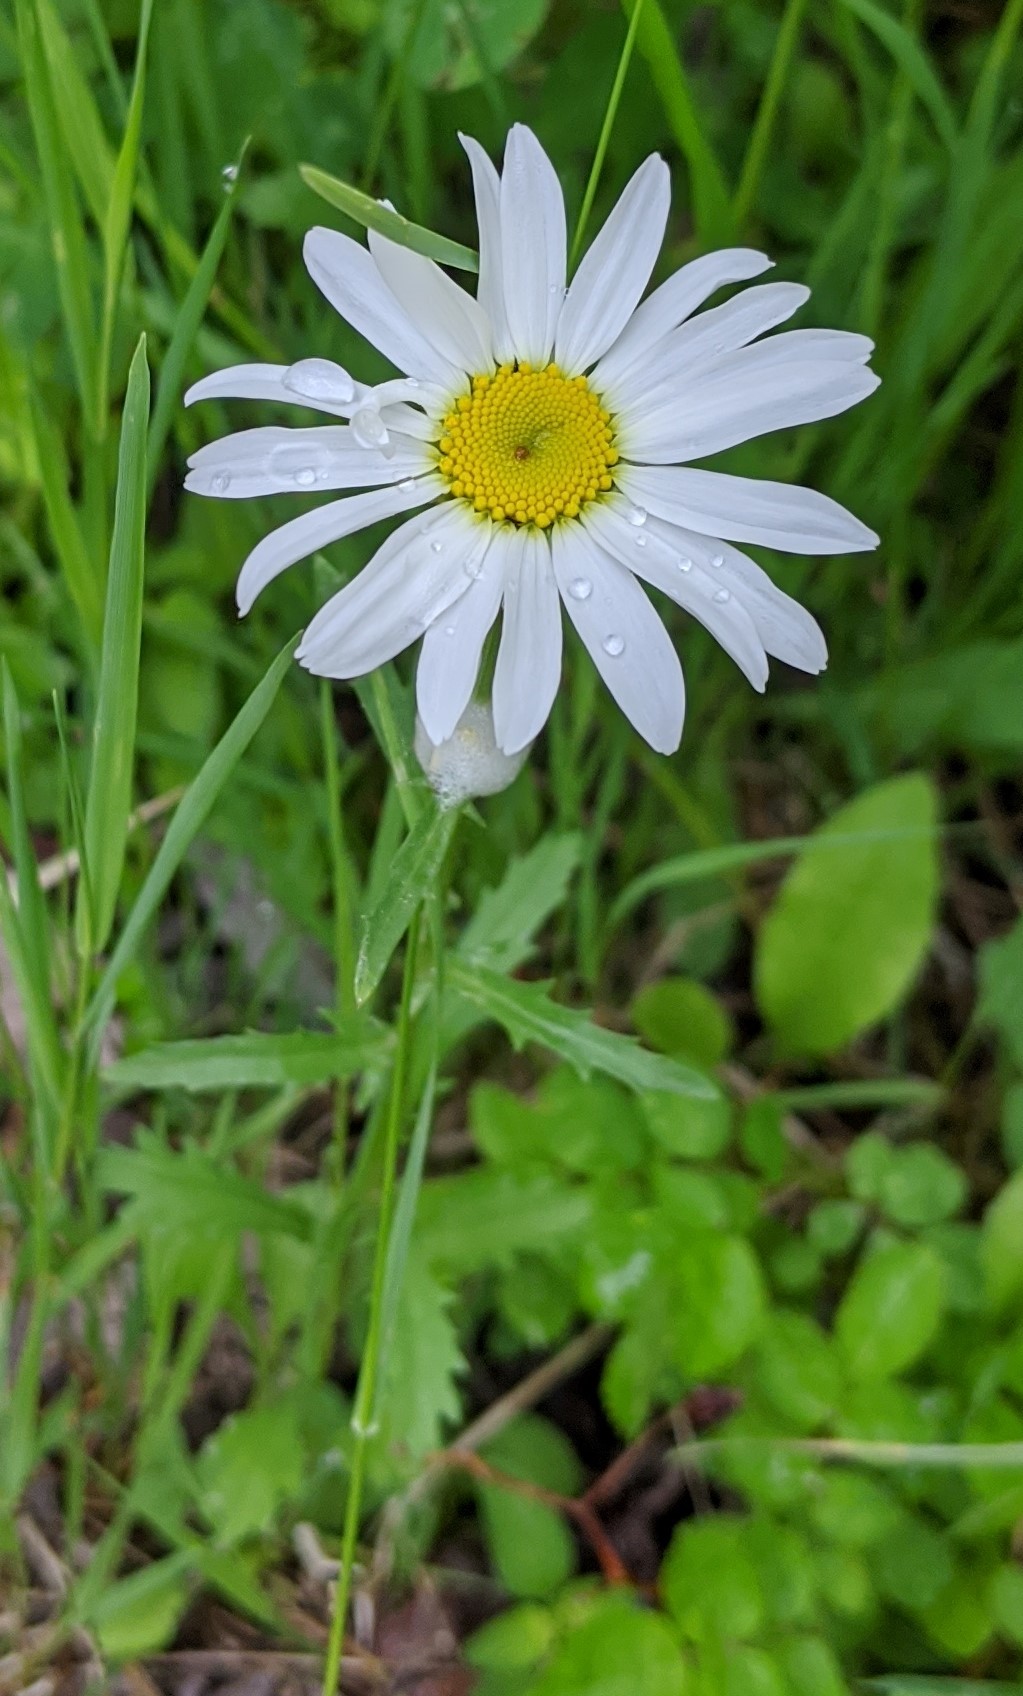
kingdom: Plantae
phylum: Tracheophyta
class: Magnoliopsida
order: Asterales
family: Asteraceae
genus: Leucanthemum
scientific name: Leucanthemum vulgare
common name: Oxeye daisy
